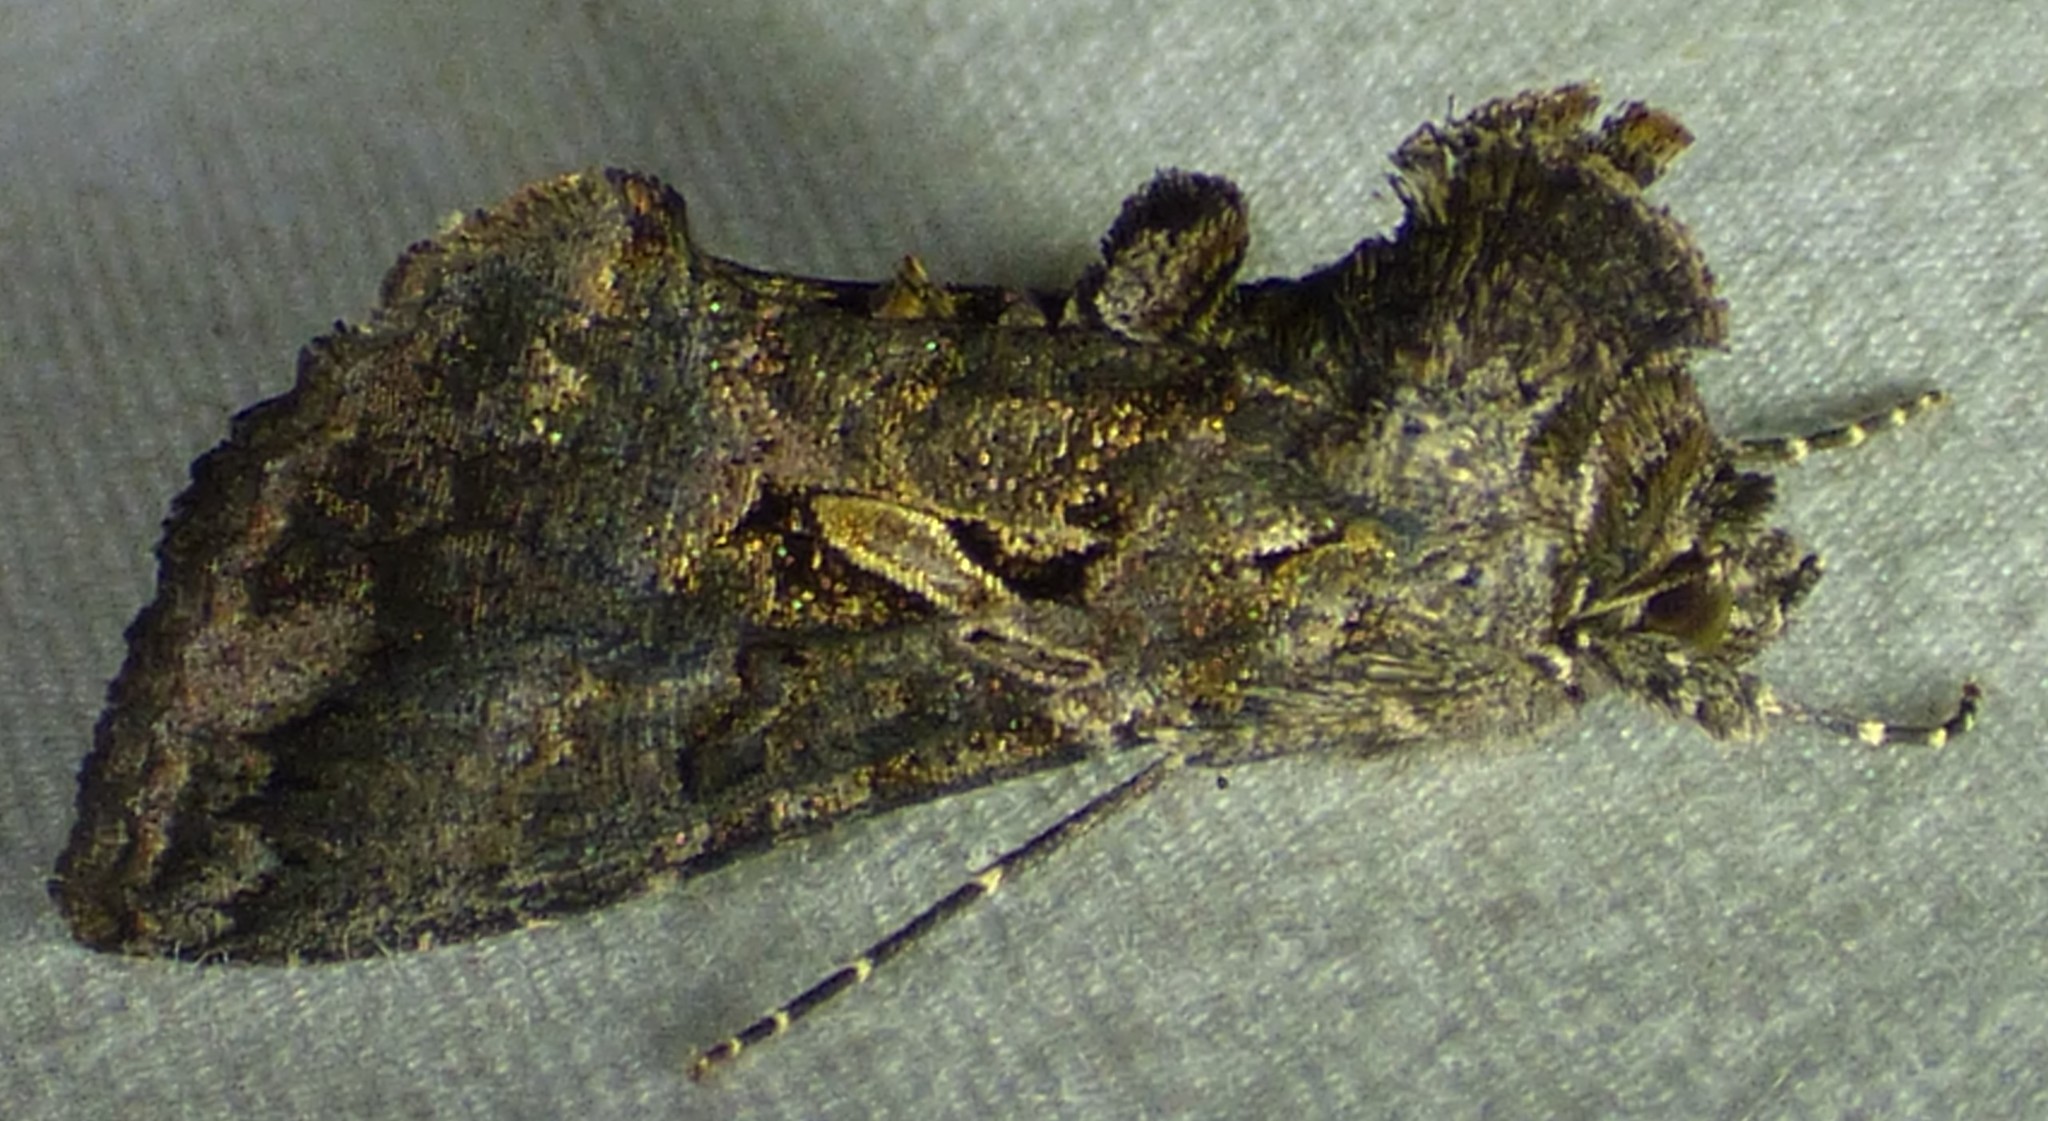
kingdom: Animalia
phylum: Arthropoda
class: Insecta
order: Lepidoptera
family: Noctuidae
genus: Ctenoplusia
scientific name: Ctenoplusia oxygramma
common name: Sharp-stigma looper moth
